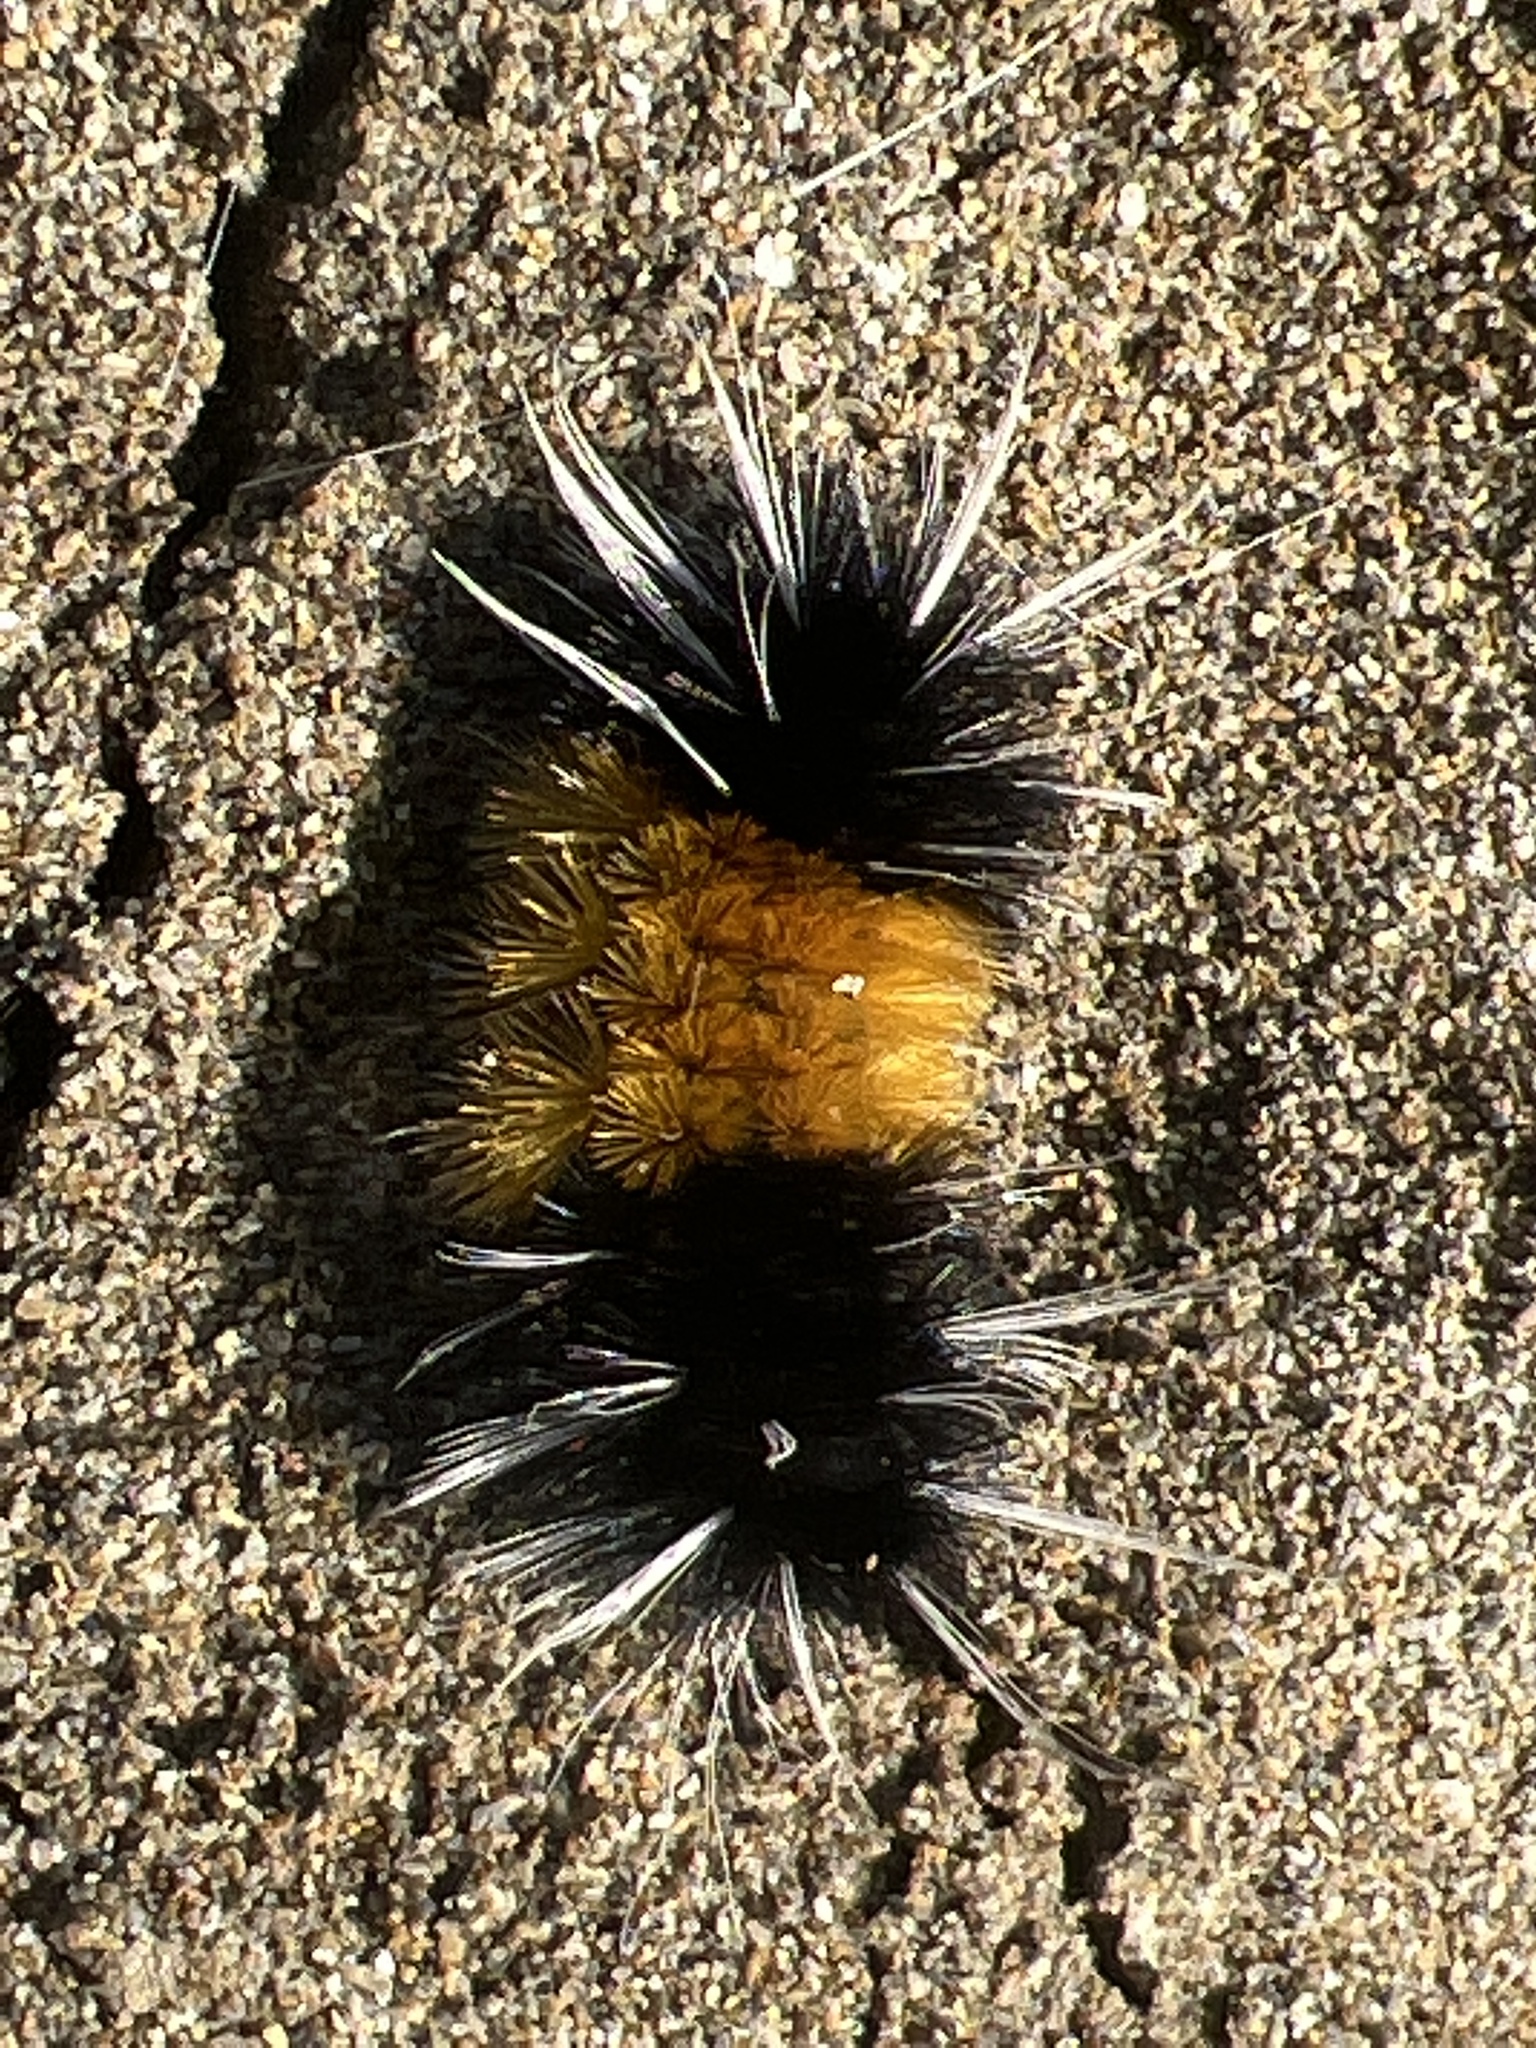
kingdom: Animalia
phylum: Arthropoda
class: Insecta
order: Lepidoptera
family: Erebidae
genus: Lophocampa
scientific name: Lophocampa maculata
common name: Spotted tussock moth
